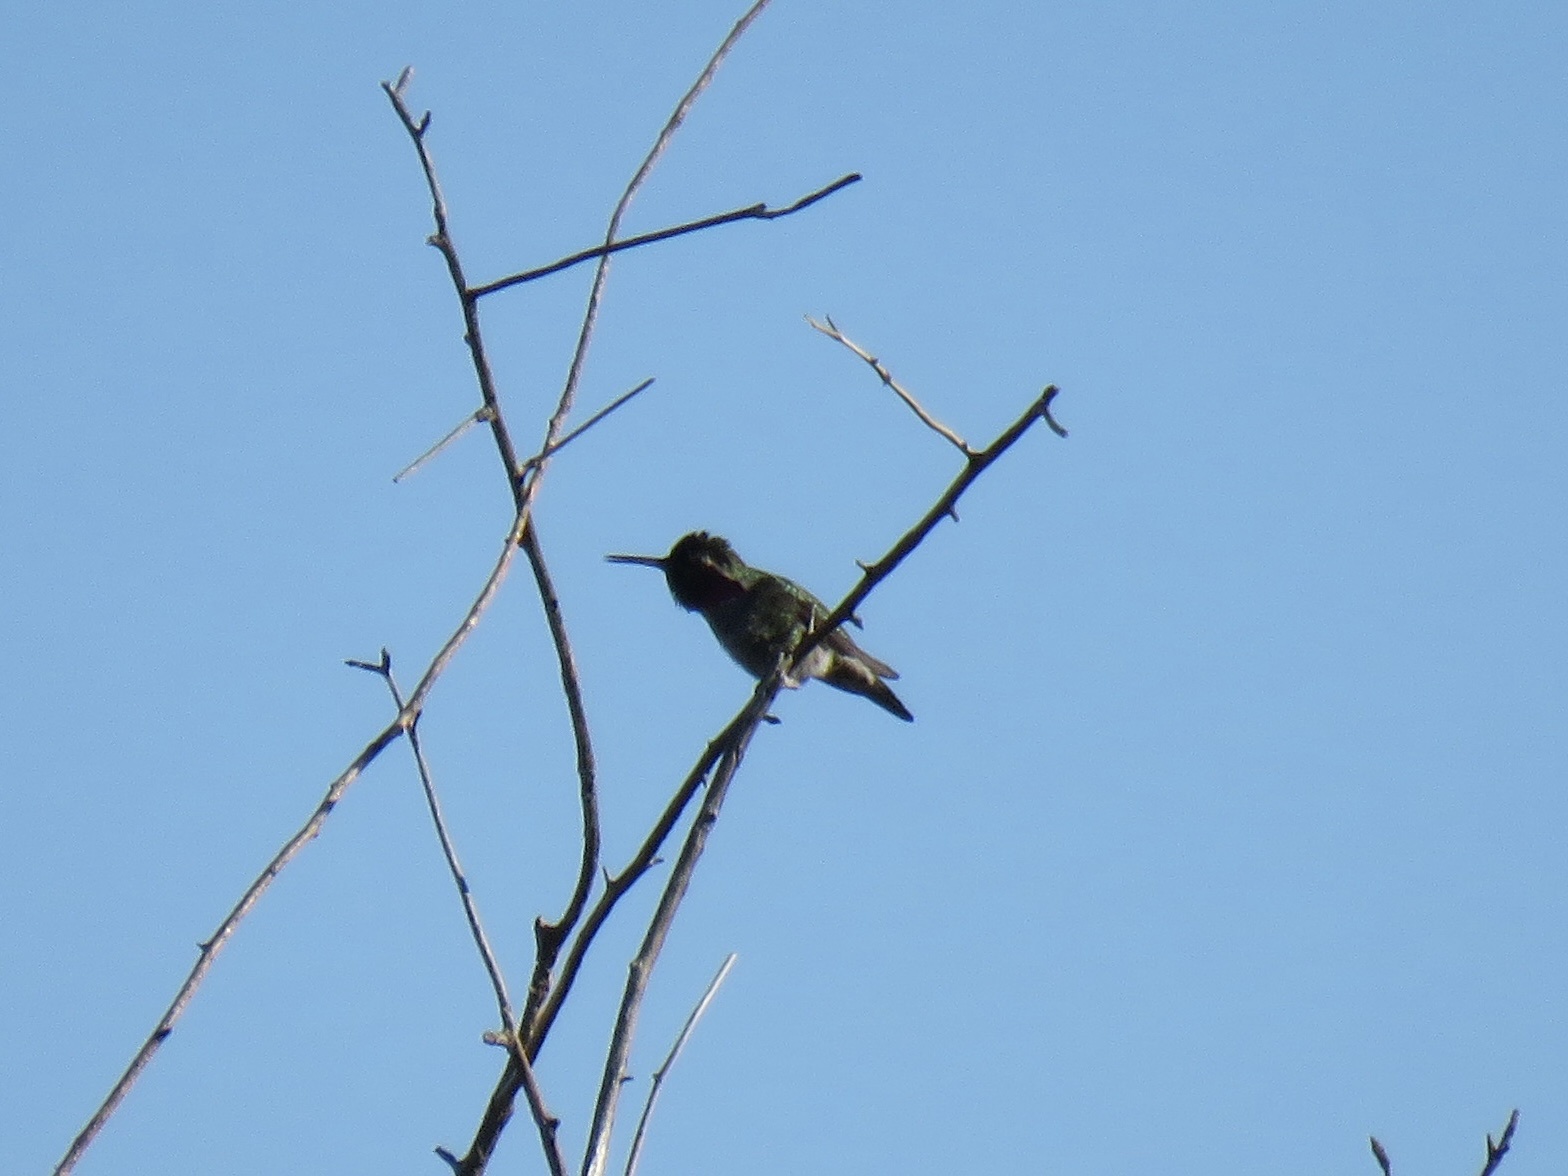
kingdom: Animalia
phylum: Chordata
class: Aves
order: Apodiformes
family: Trochilidae
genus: Calypte
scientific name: Calypte anna
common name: Anna's hummingbird
